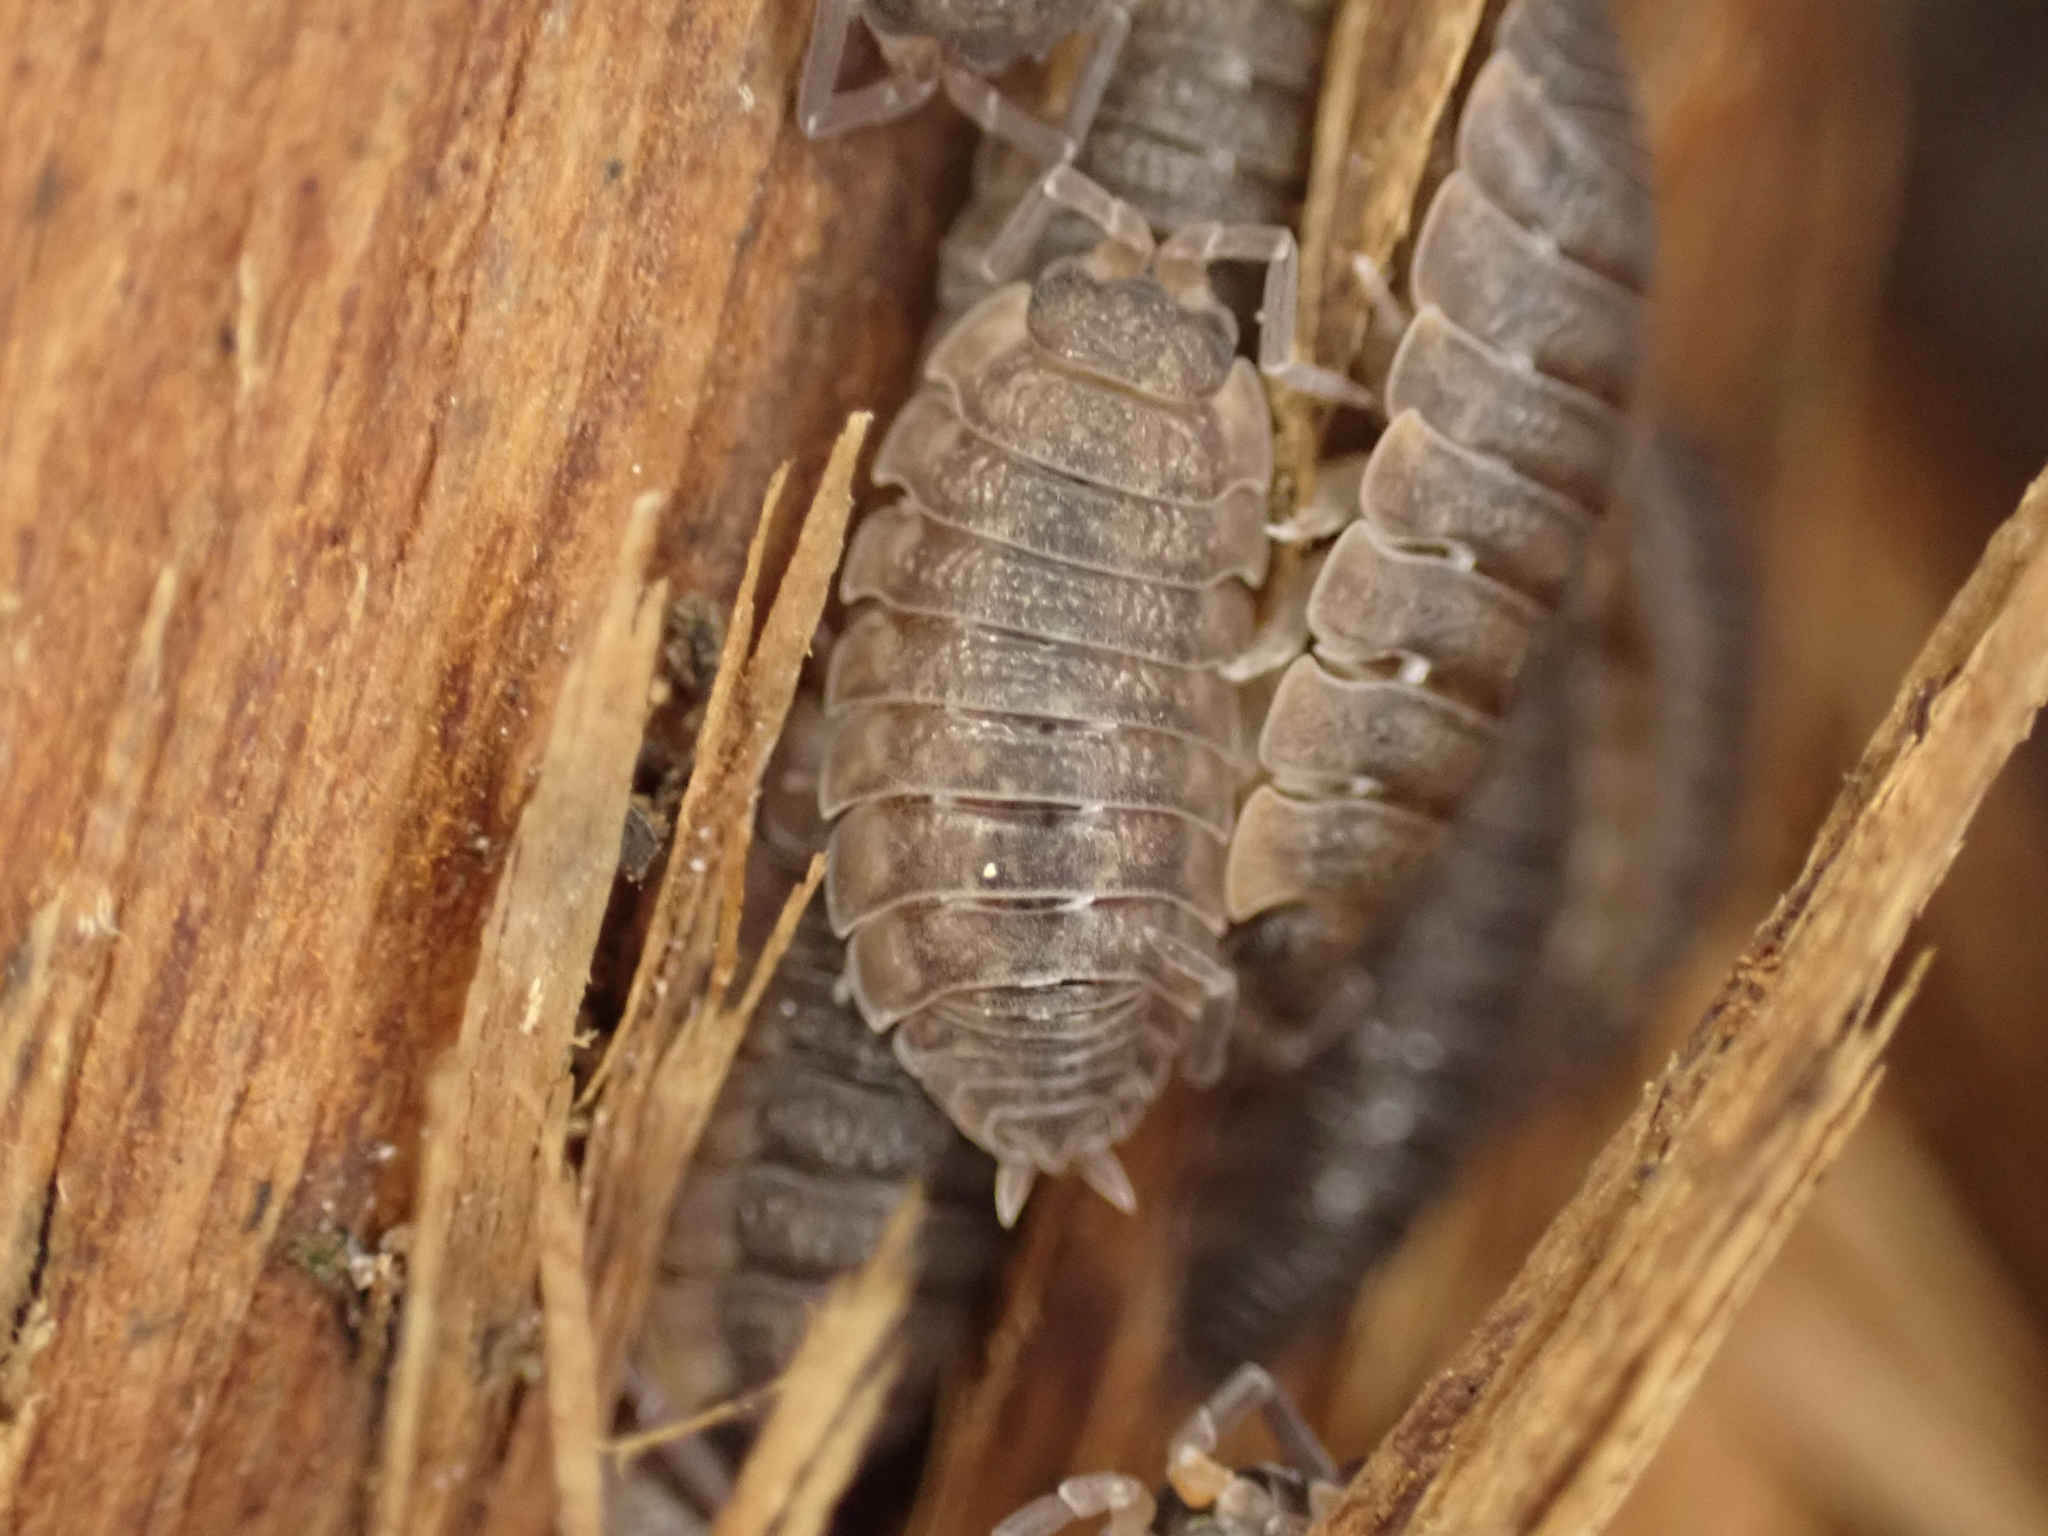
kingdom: Animalia
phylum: Arthropoda
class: Malacostraca
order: Isopoda
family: Porcellionidae
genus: Porcellio
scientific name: Porcellio scaber
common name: Common rough woodlouse
